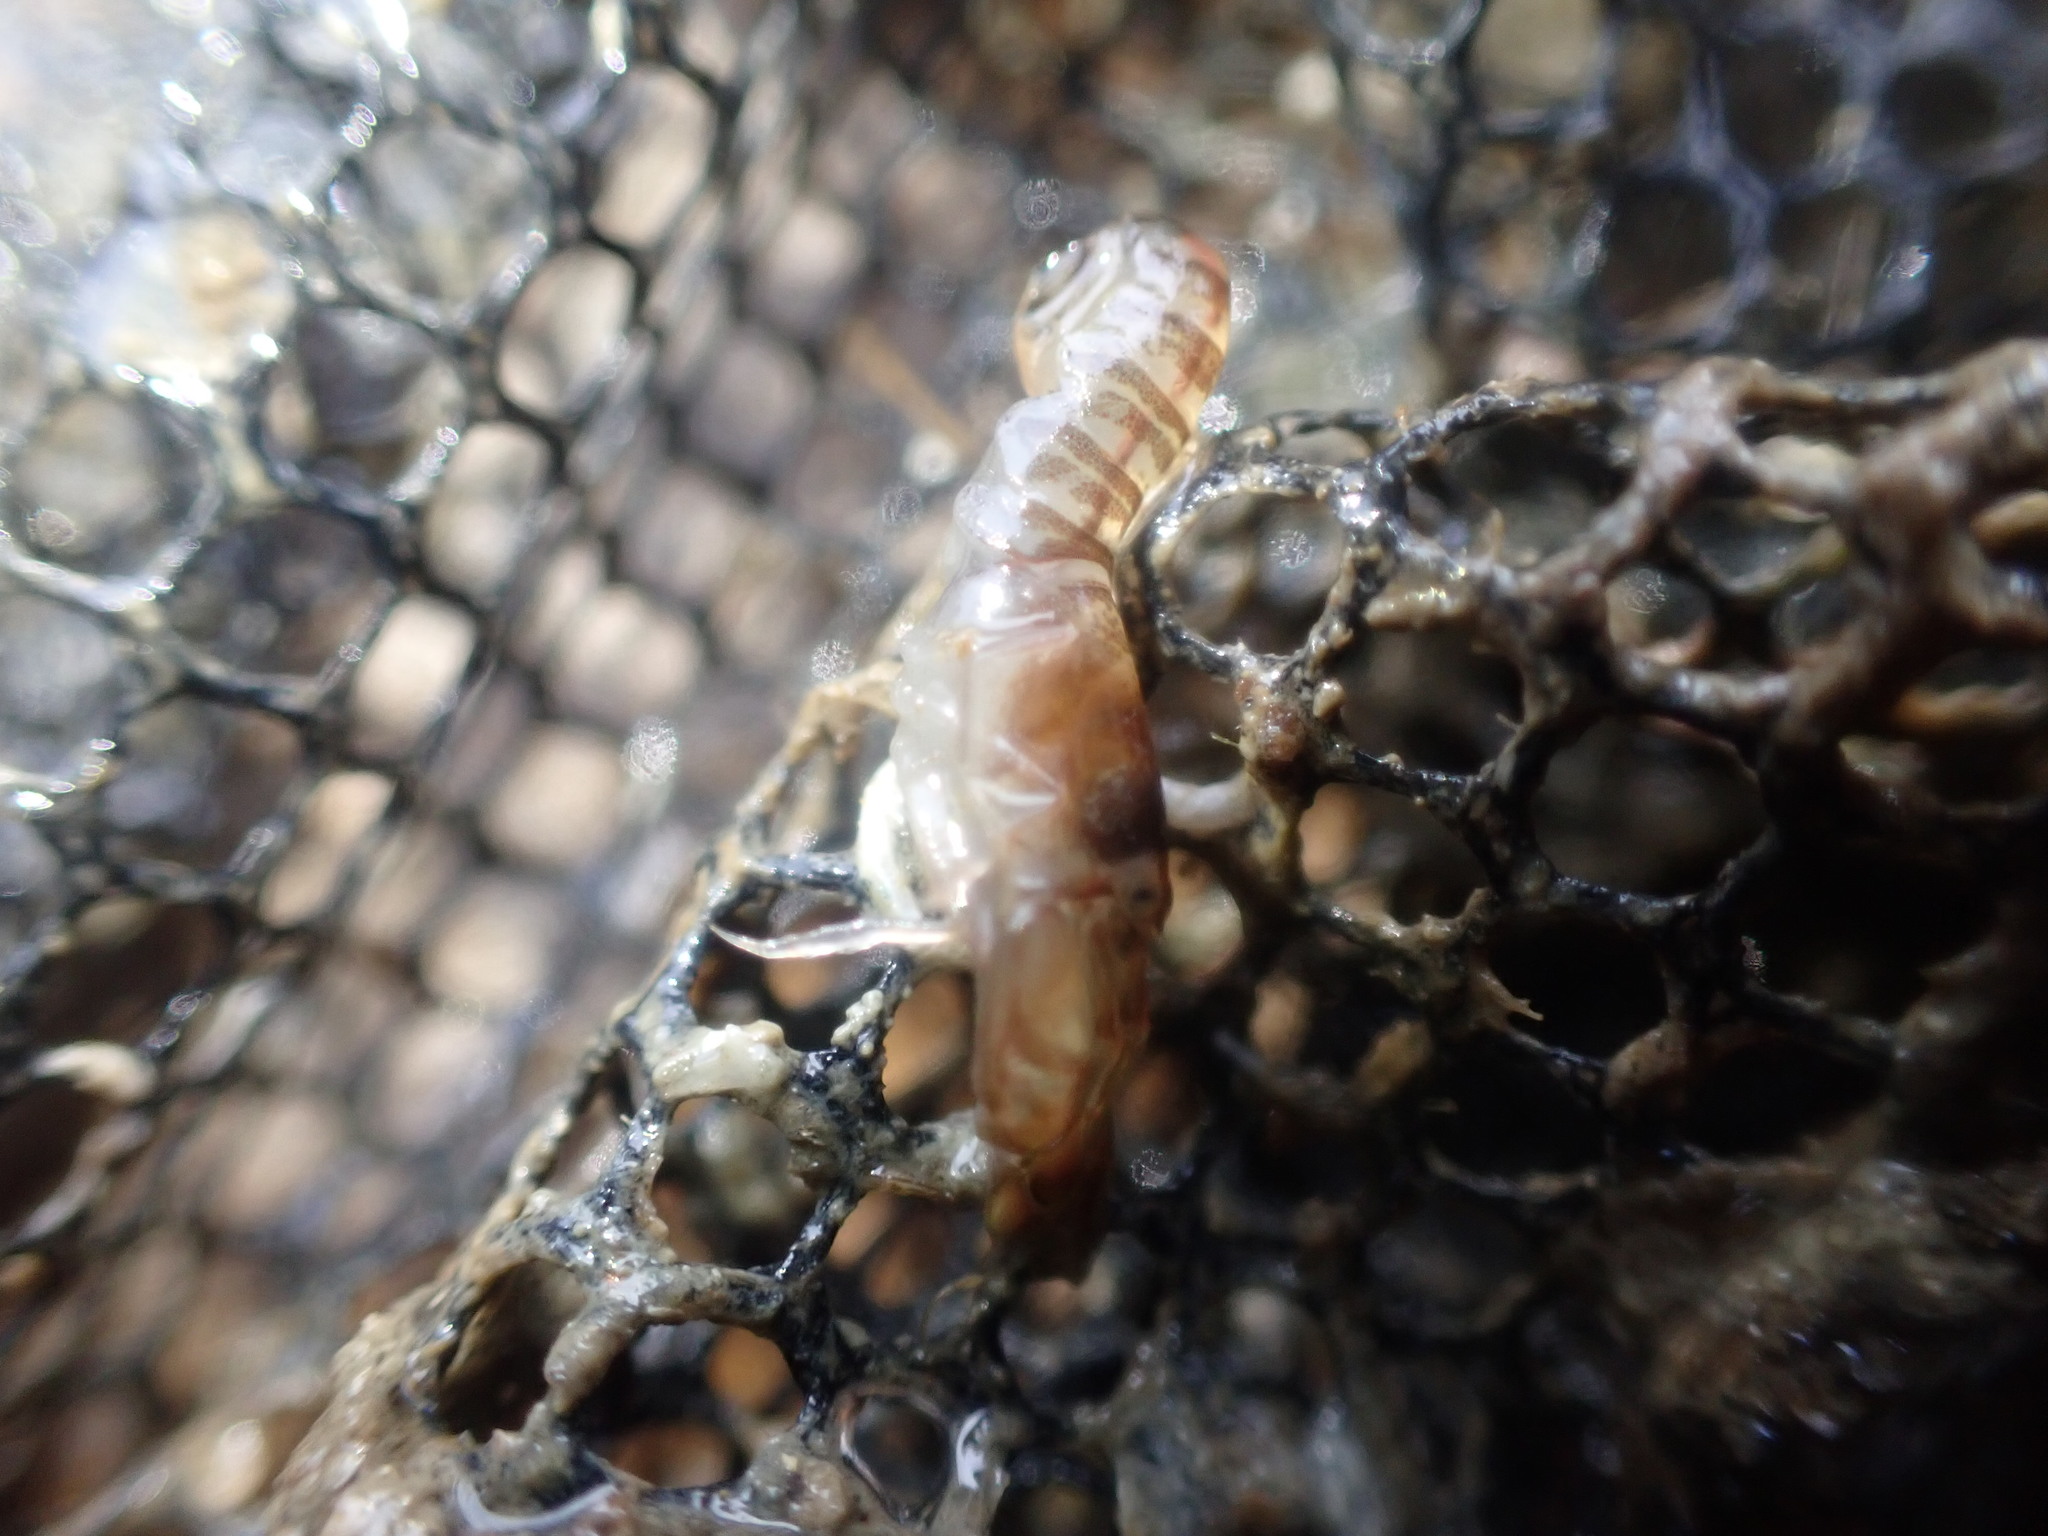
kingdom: Animalia
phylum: Arthropoda
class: Malacostraca
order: Decapoda
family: Alpheidae
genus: Alpheus
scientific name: Alpheus richardsoni
